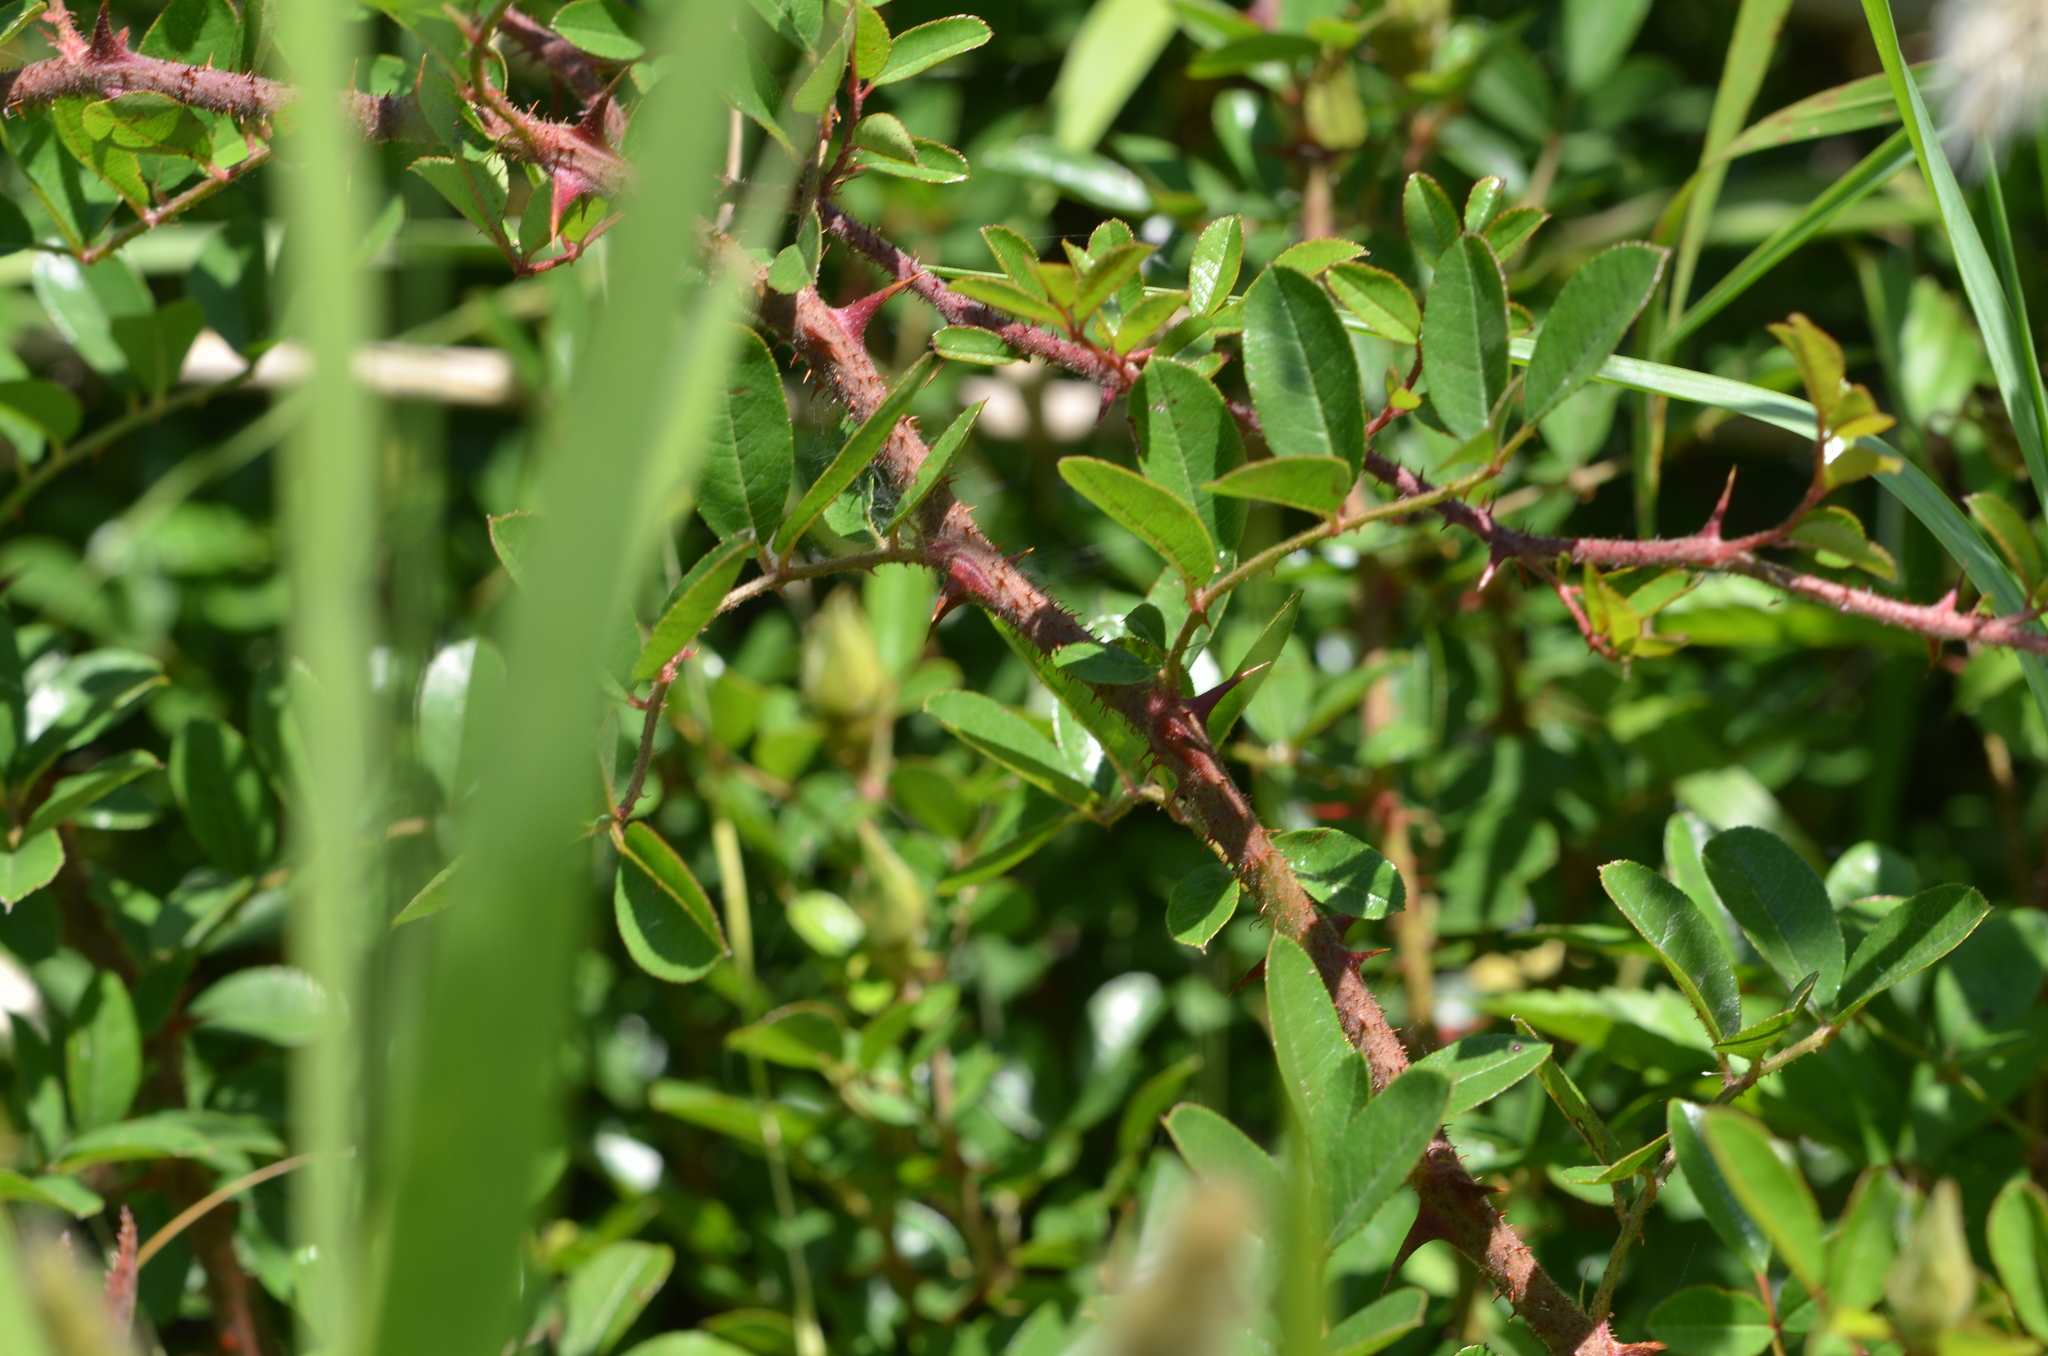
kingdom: Plantae
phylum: Tracheophyta
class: Magnoliopsida
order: Rosales
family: Rosaceae
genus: Rosa
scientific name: Rosa bracteata
